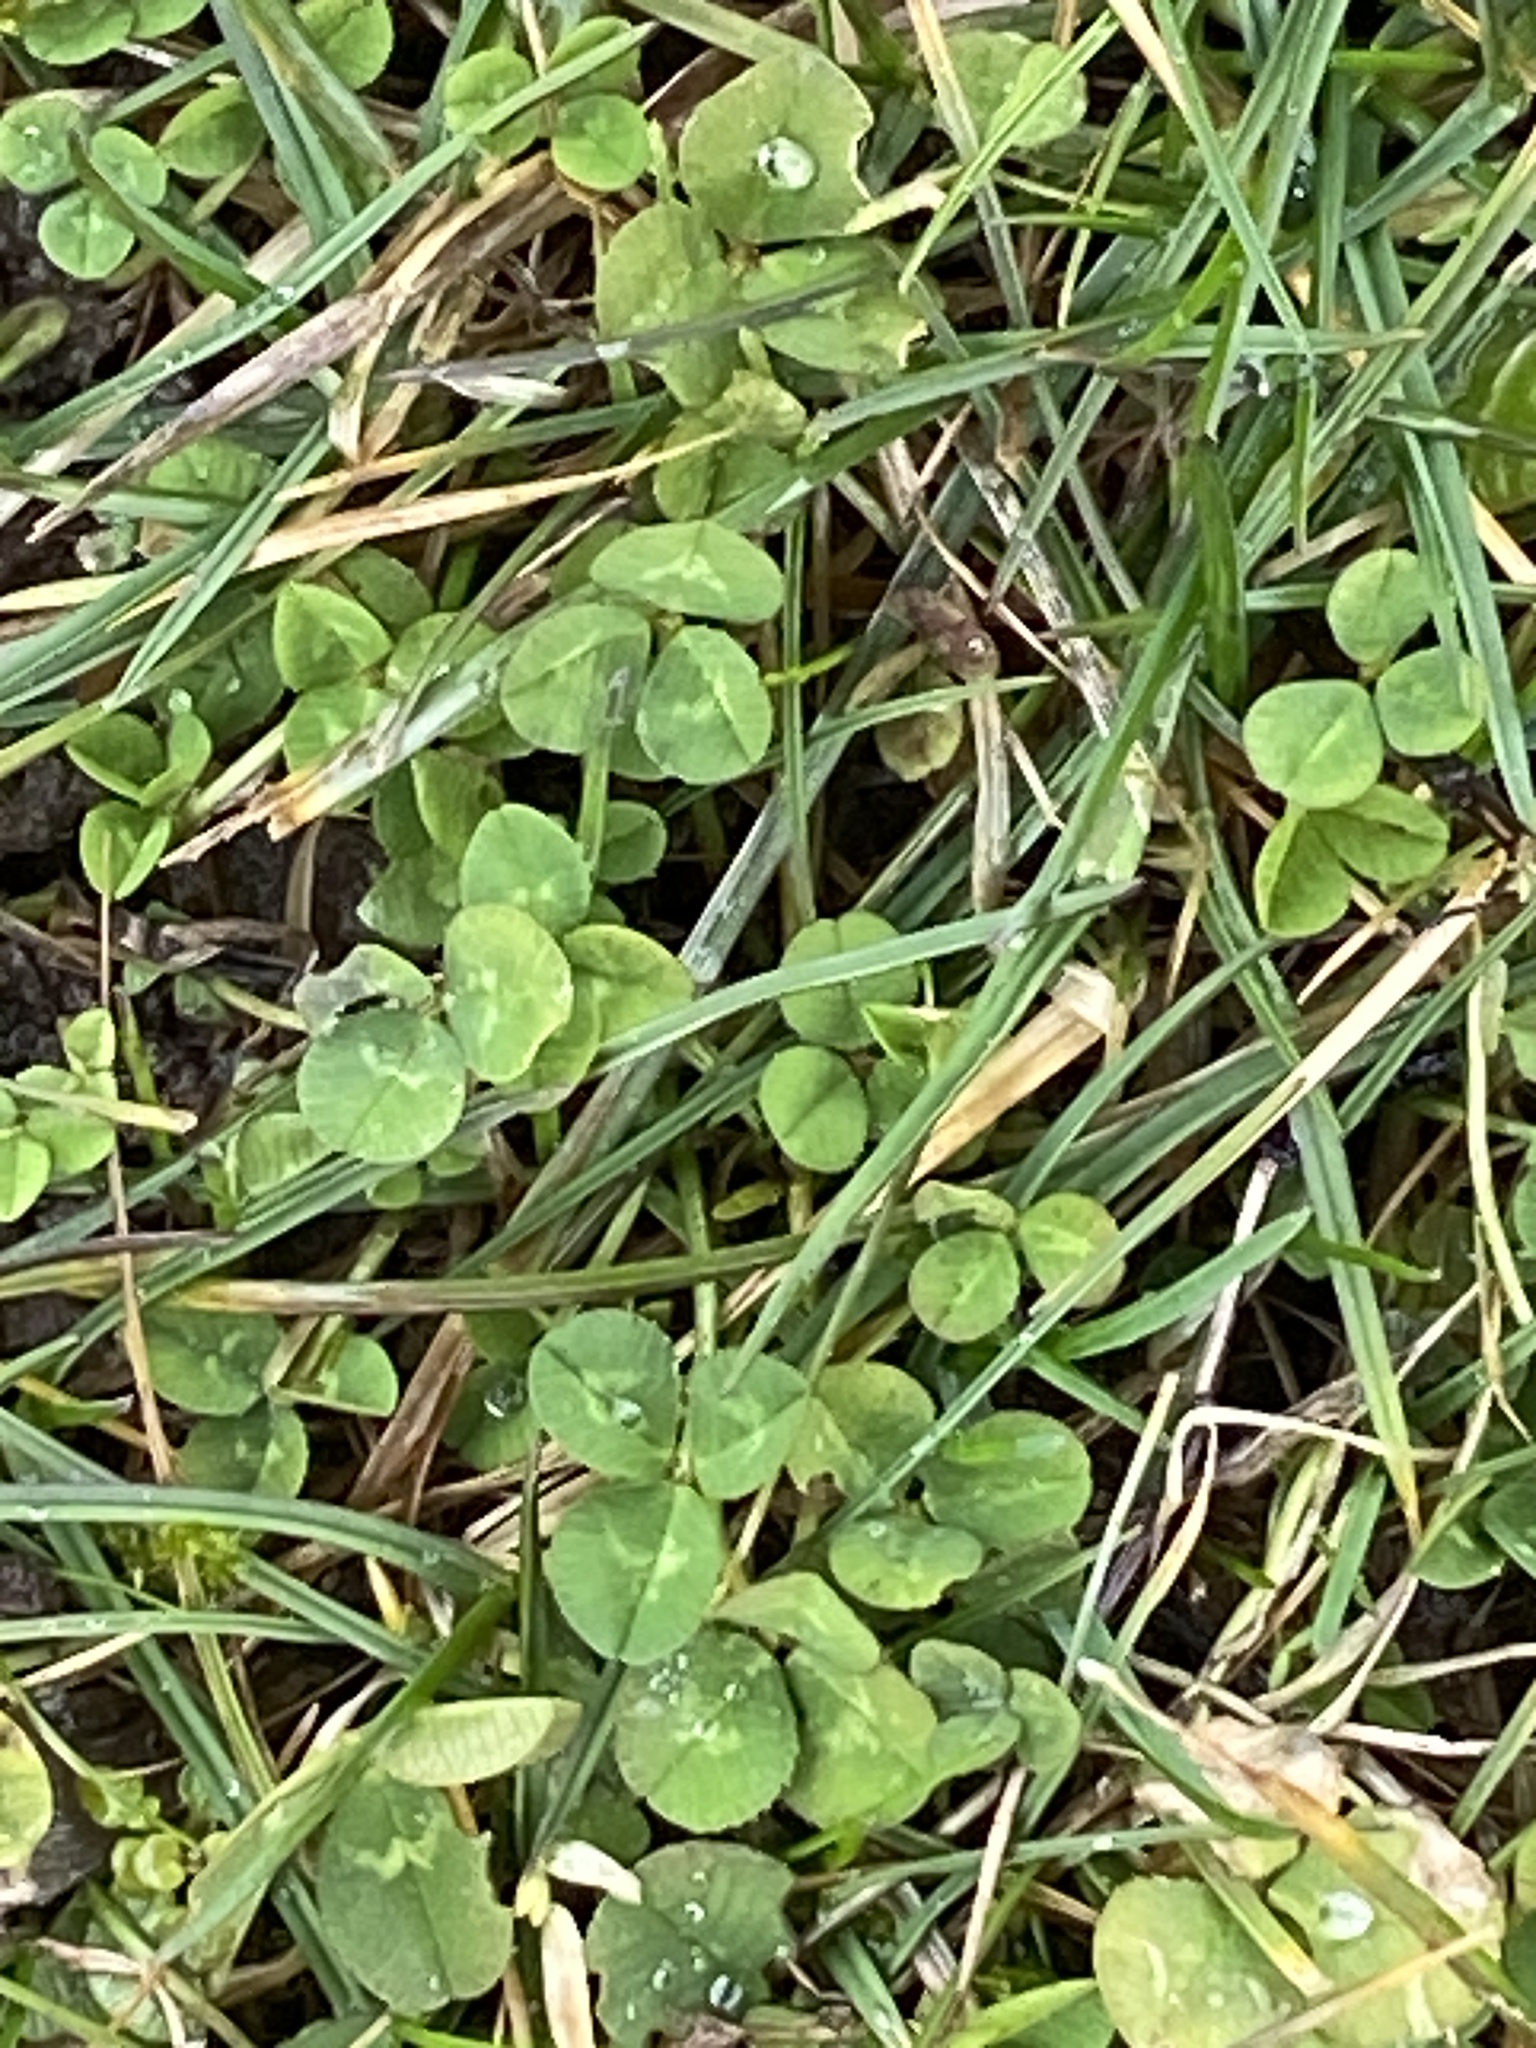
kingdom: Plantae
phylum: Tracheophyta
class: Magnoliopsida
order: Fabales
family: Fabaceae
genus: Trifolium
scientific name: Trifolium repens
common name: White clover
